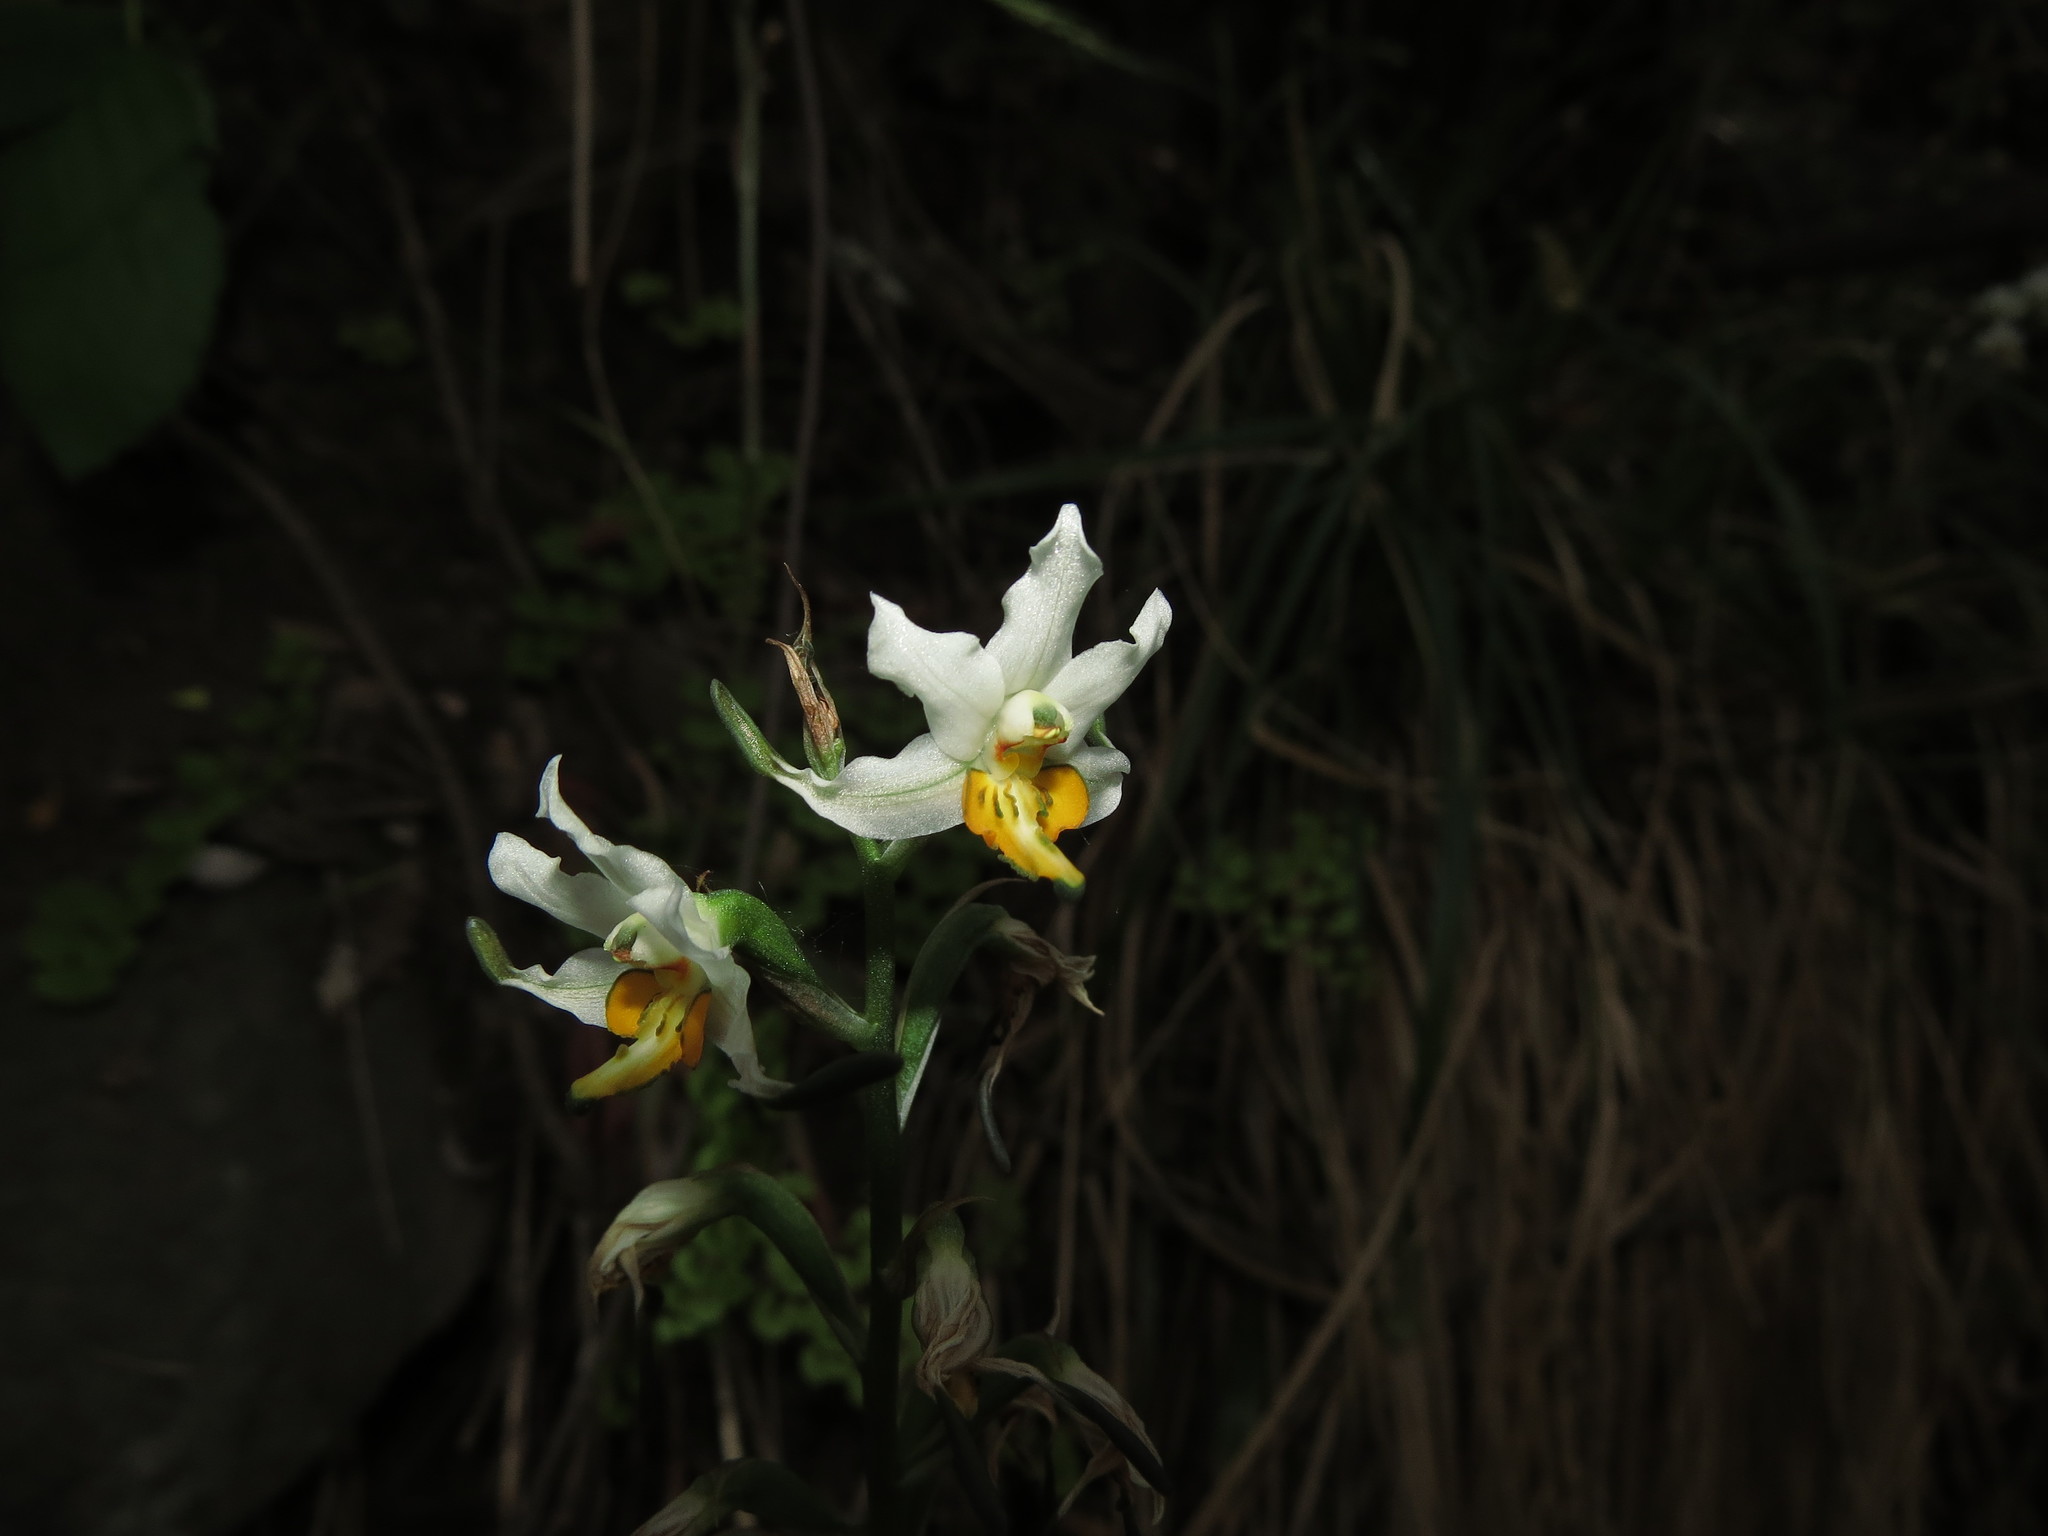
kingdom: Plantae
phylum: Tracheophyta
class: Liliopsida
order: Asparagales
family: Orchidaceae
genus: Gavilea
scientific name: Gavilea longibracteata
